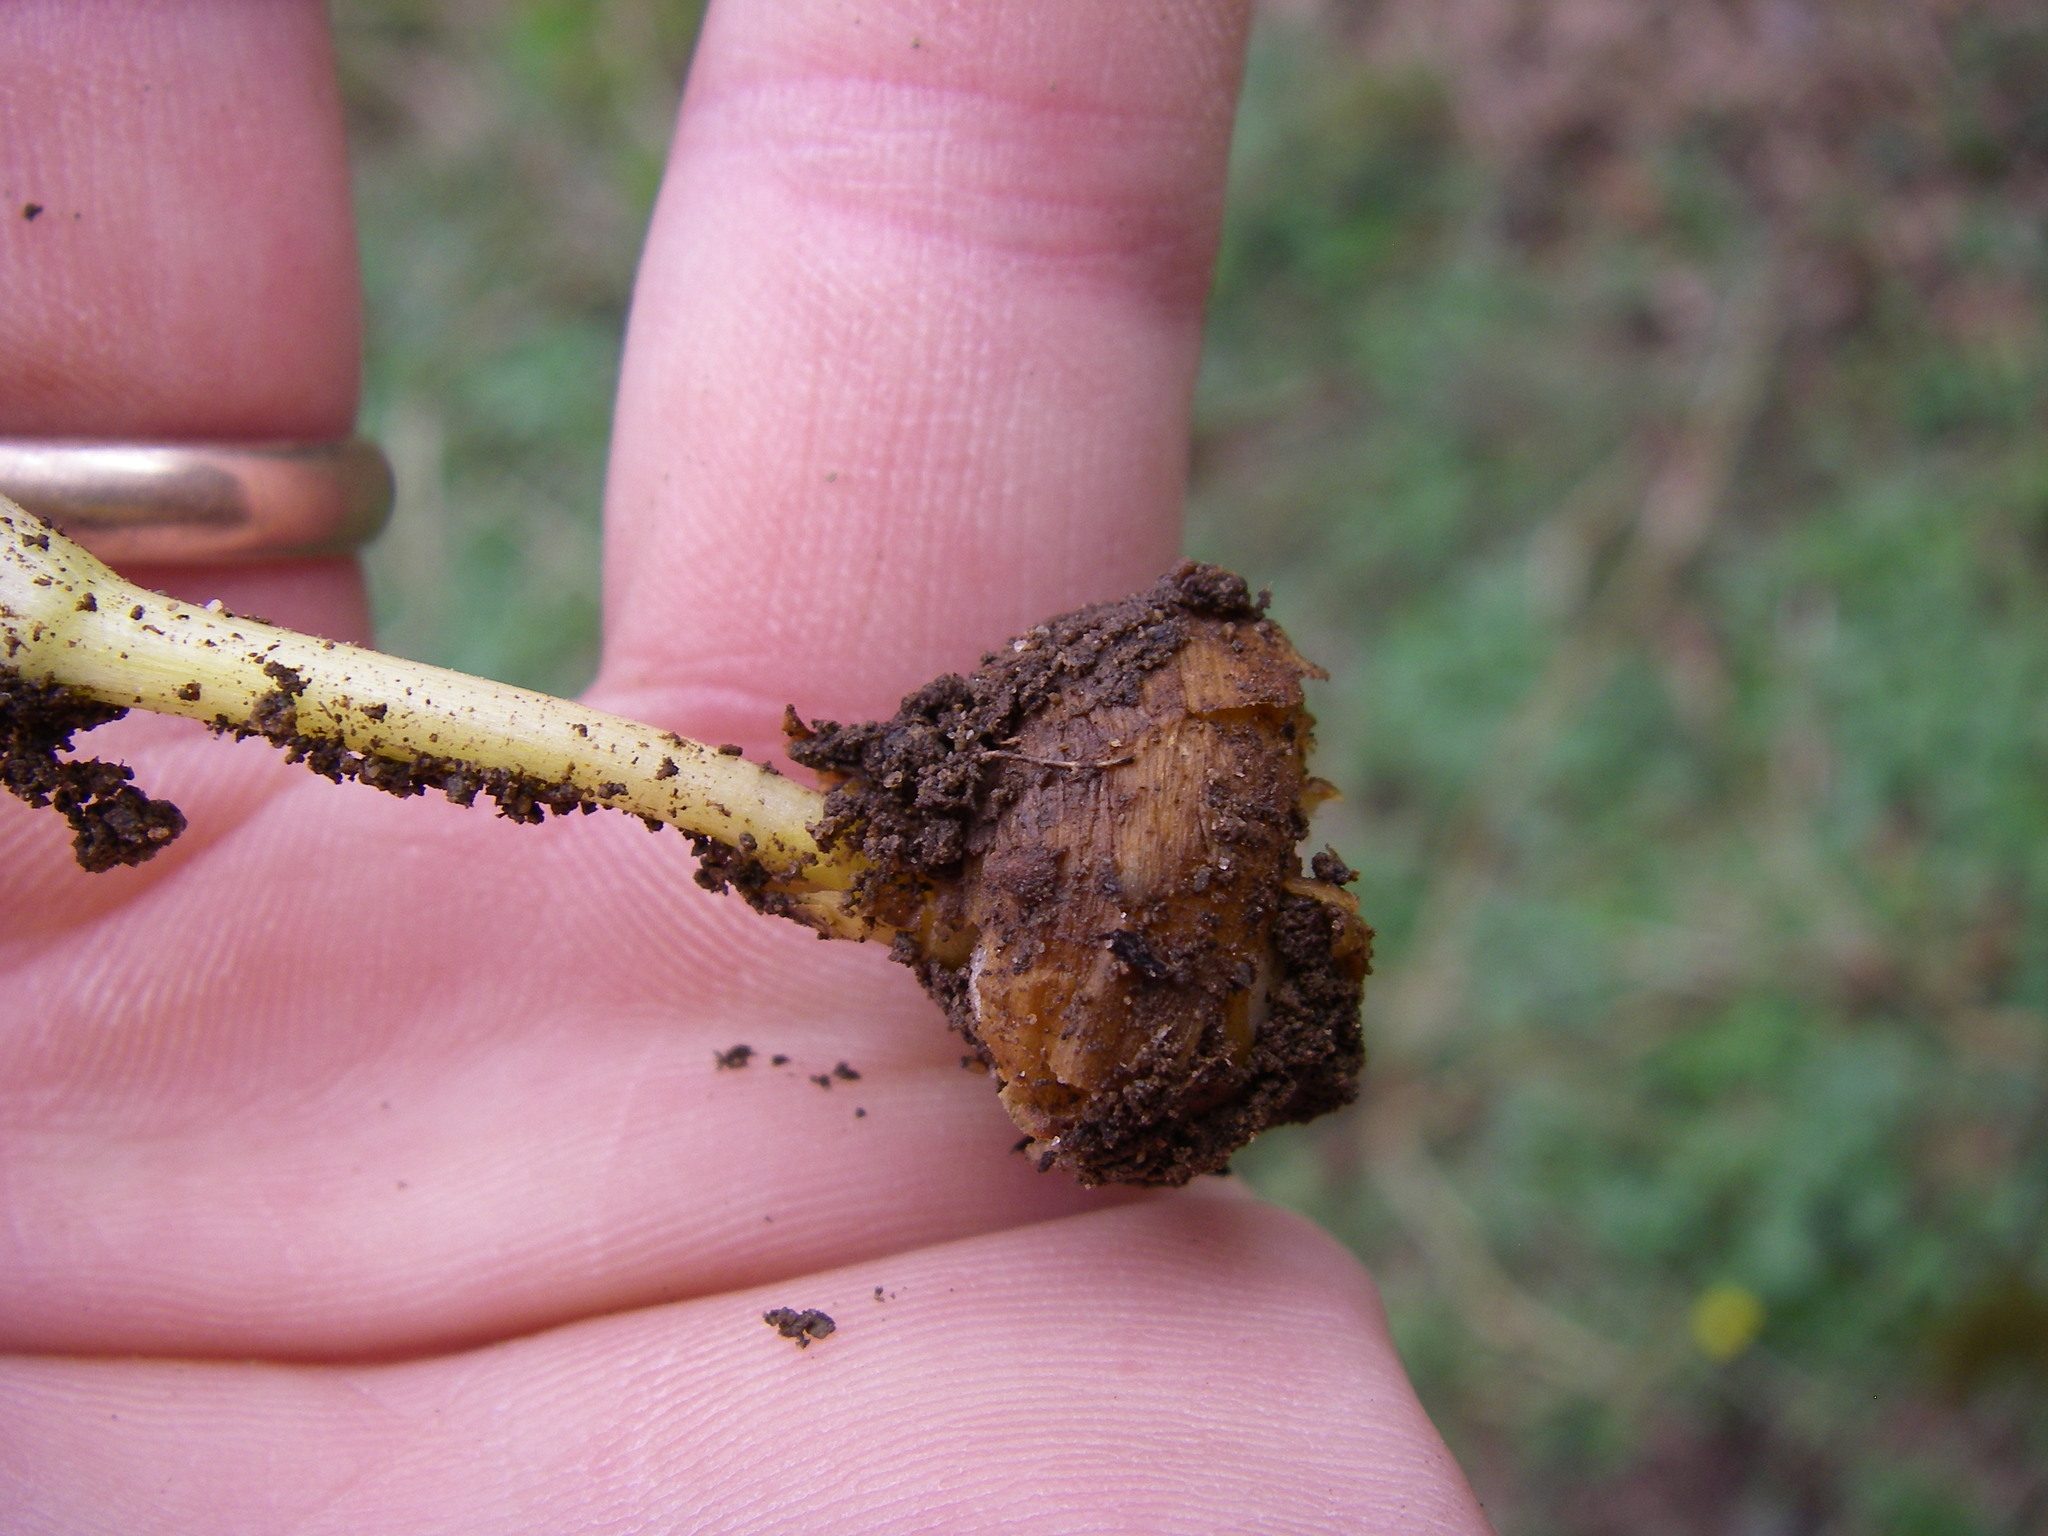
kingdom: Plantae
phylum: Tracheophyta
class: Magnoliopsida
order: Ranunculales
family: Papaveraceae
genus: Corydalis
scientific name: Corydalis solida
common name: Bird-in-a-bush
